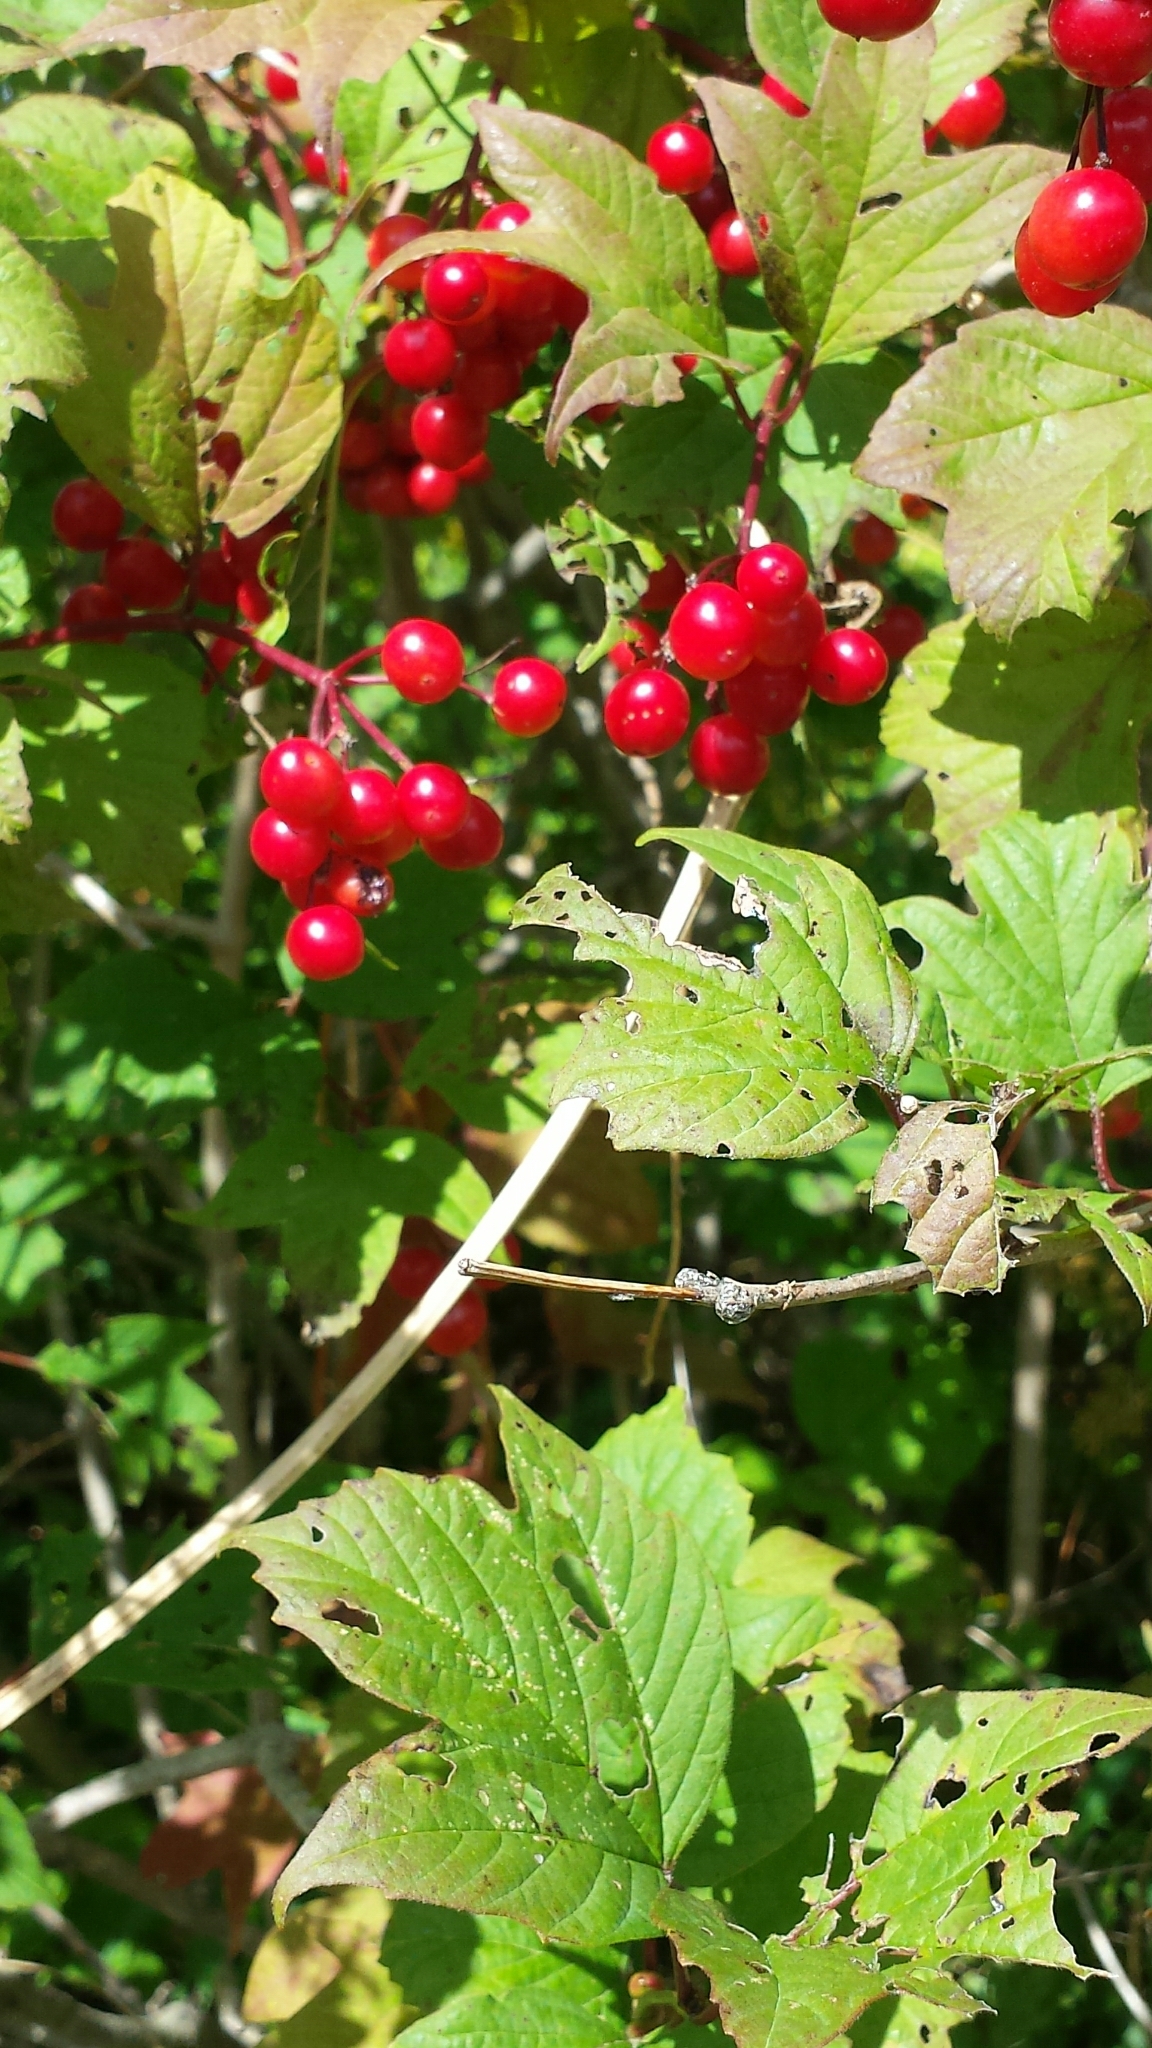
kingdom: Plantae
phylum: Tracheophyta
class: Magnoliopsida
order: Dipsacales
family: Viburnaceae
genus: Viburnum
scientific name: Viburnum opulus
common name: Guelder-rose
